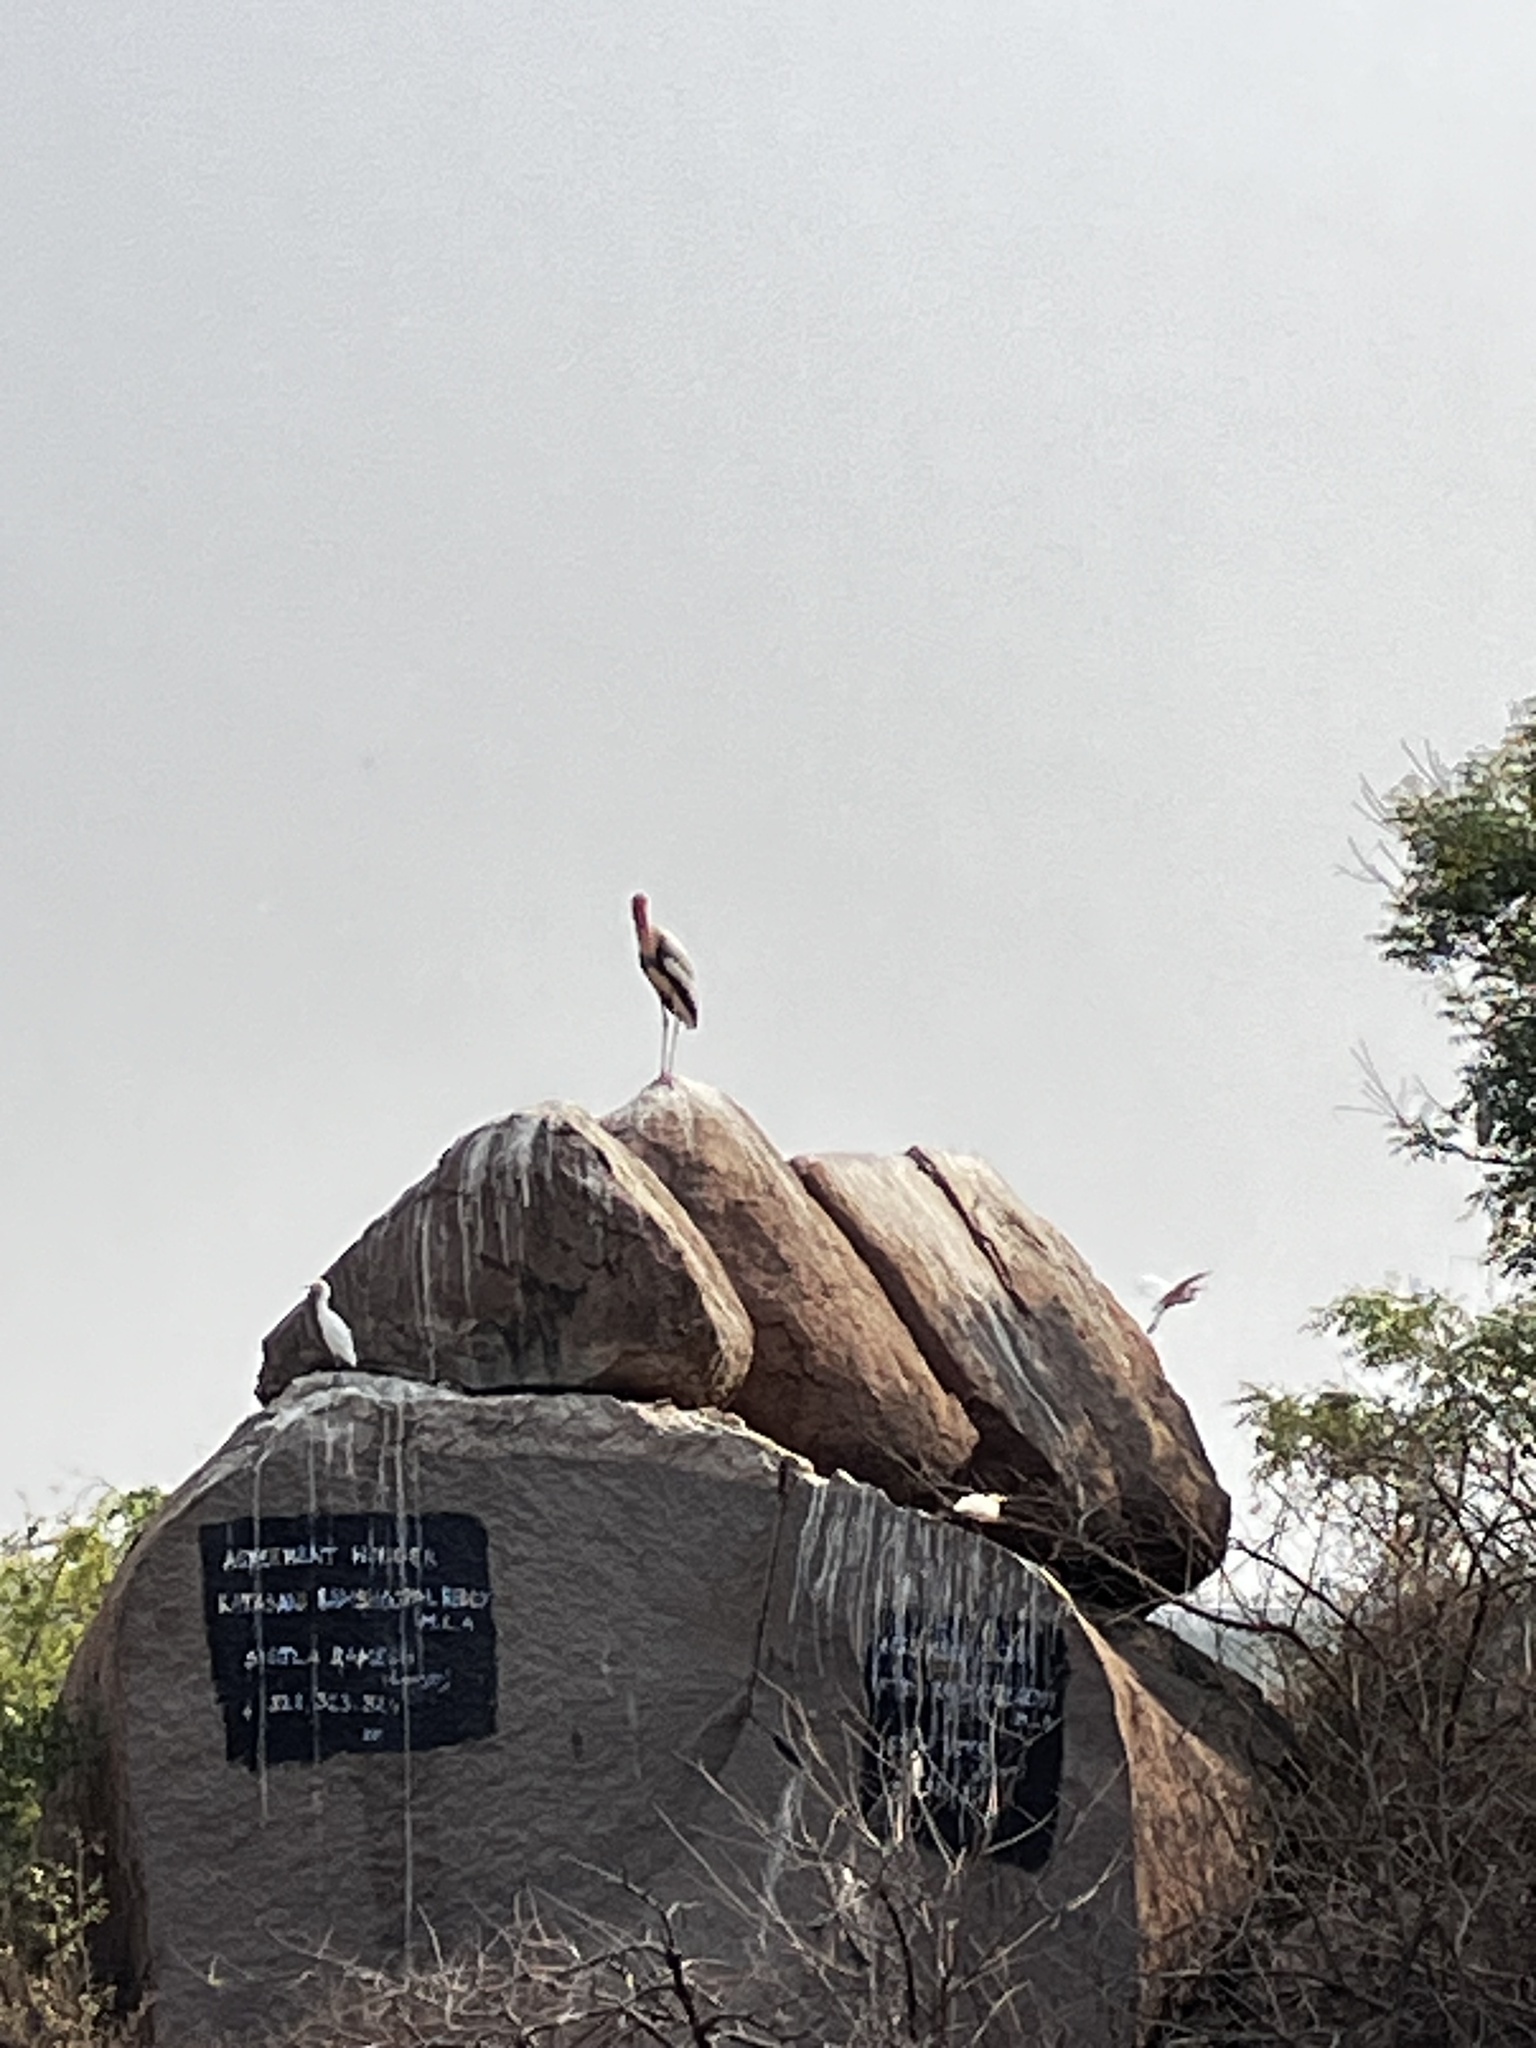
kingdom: Animalia
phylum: Chordata
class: Aves
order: Ciconiiformes
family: Ciconiidae
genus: Mycteria
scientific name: Mycteria leucocephala
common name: Painted stork
